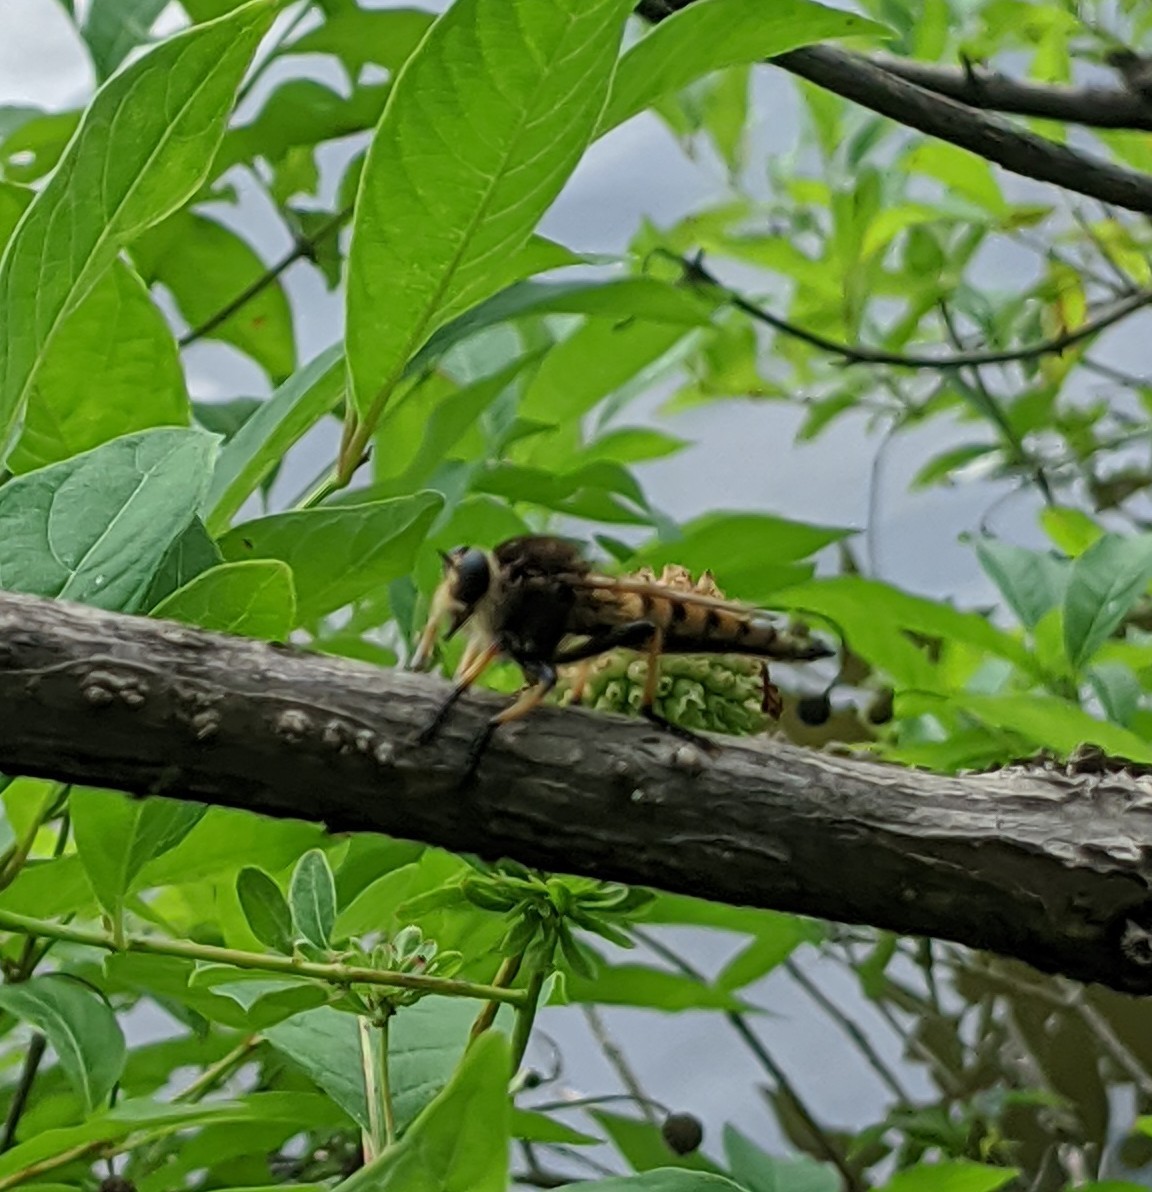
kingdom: Animalia
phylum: Arthropoda
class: Insecta
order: Diptera
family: Asilidae
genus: Promachus
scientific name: Promachus rufipes
